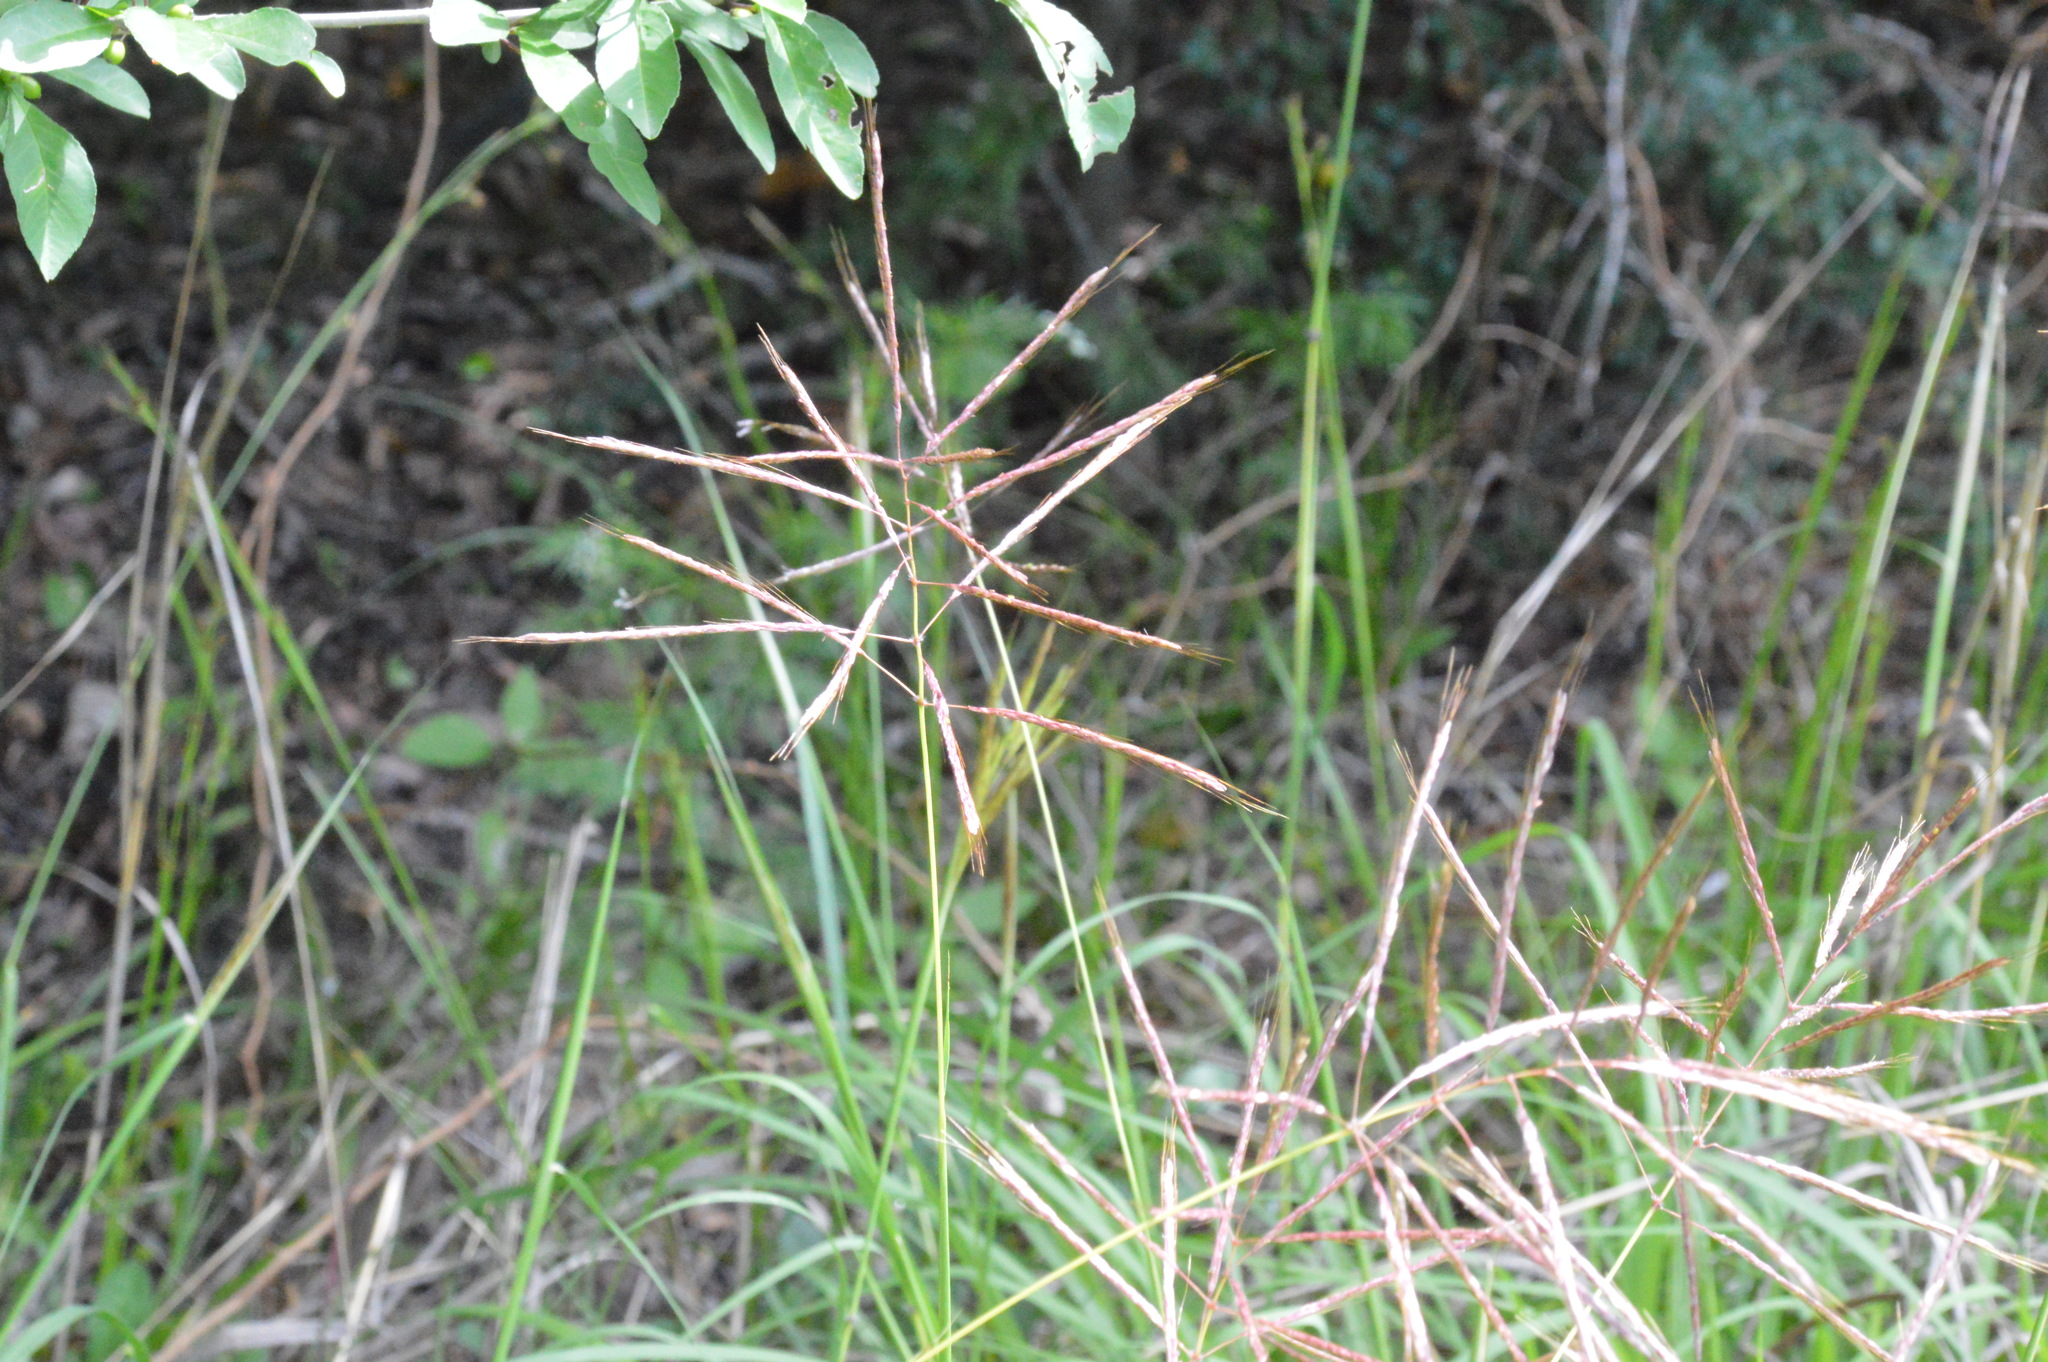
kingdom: Plantae
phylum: Tracheophyta
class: Liliopsida
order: Poales
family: Poaceae
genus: Bothriochloa
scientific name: Bothriochloa bladhii
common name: Caucasian bluestem
